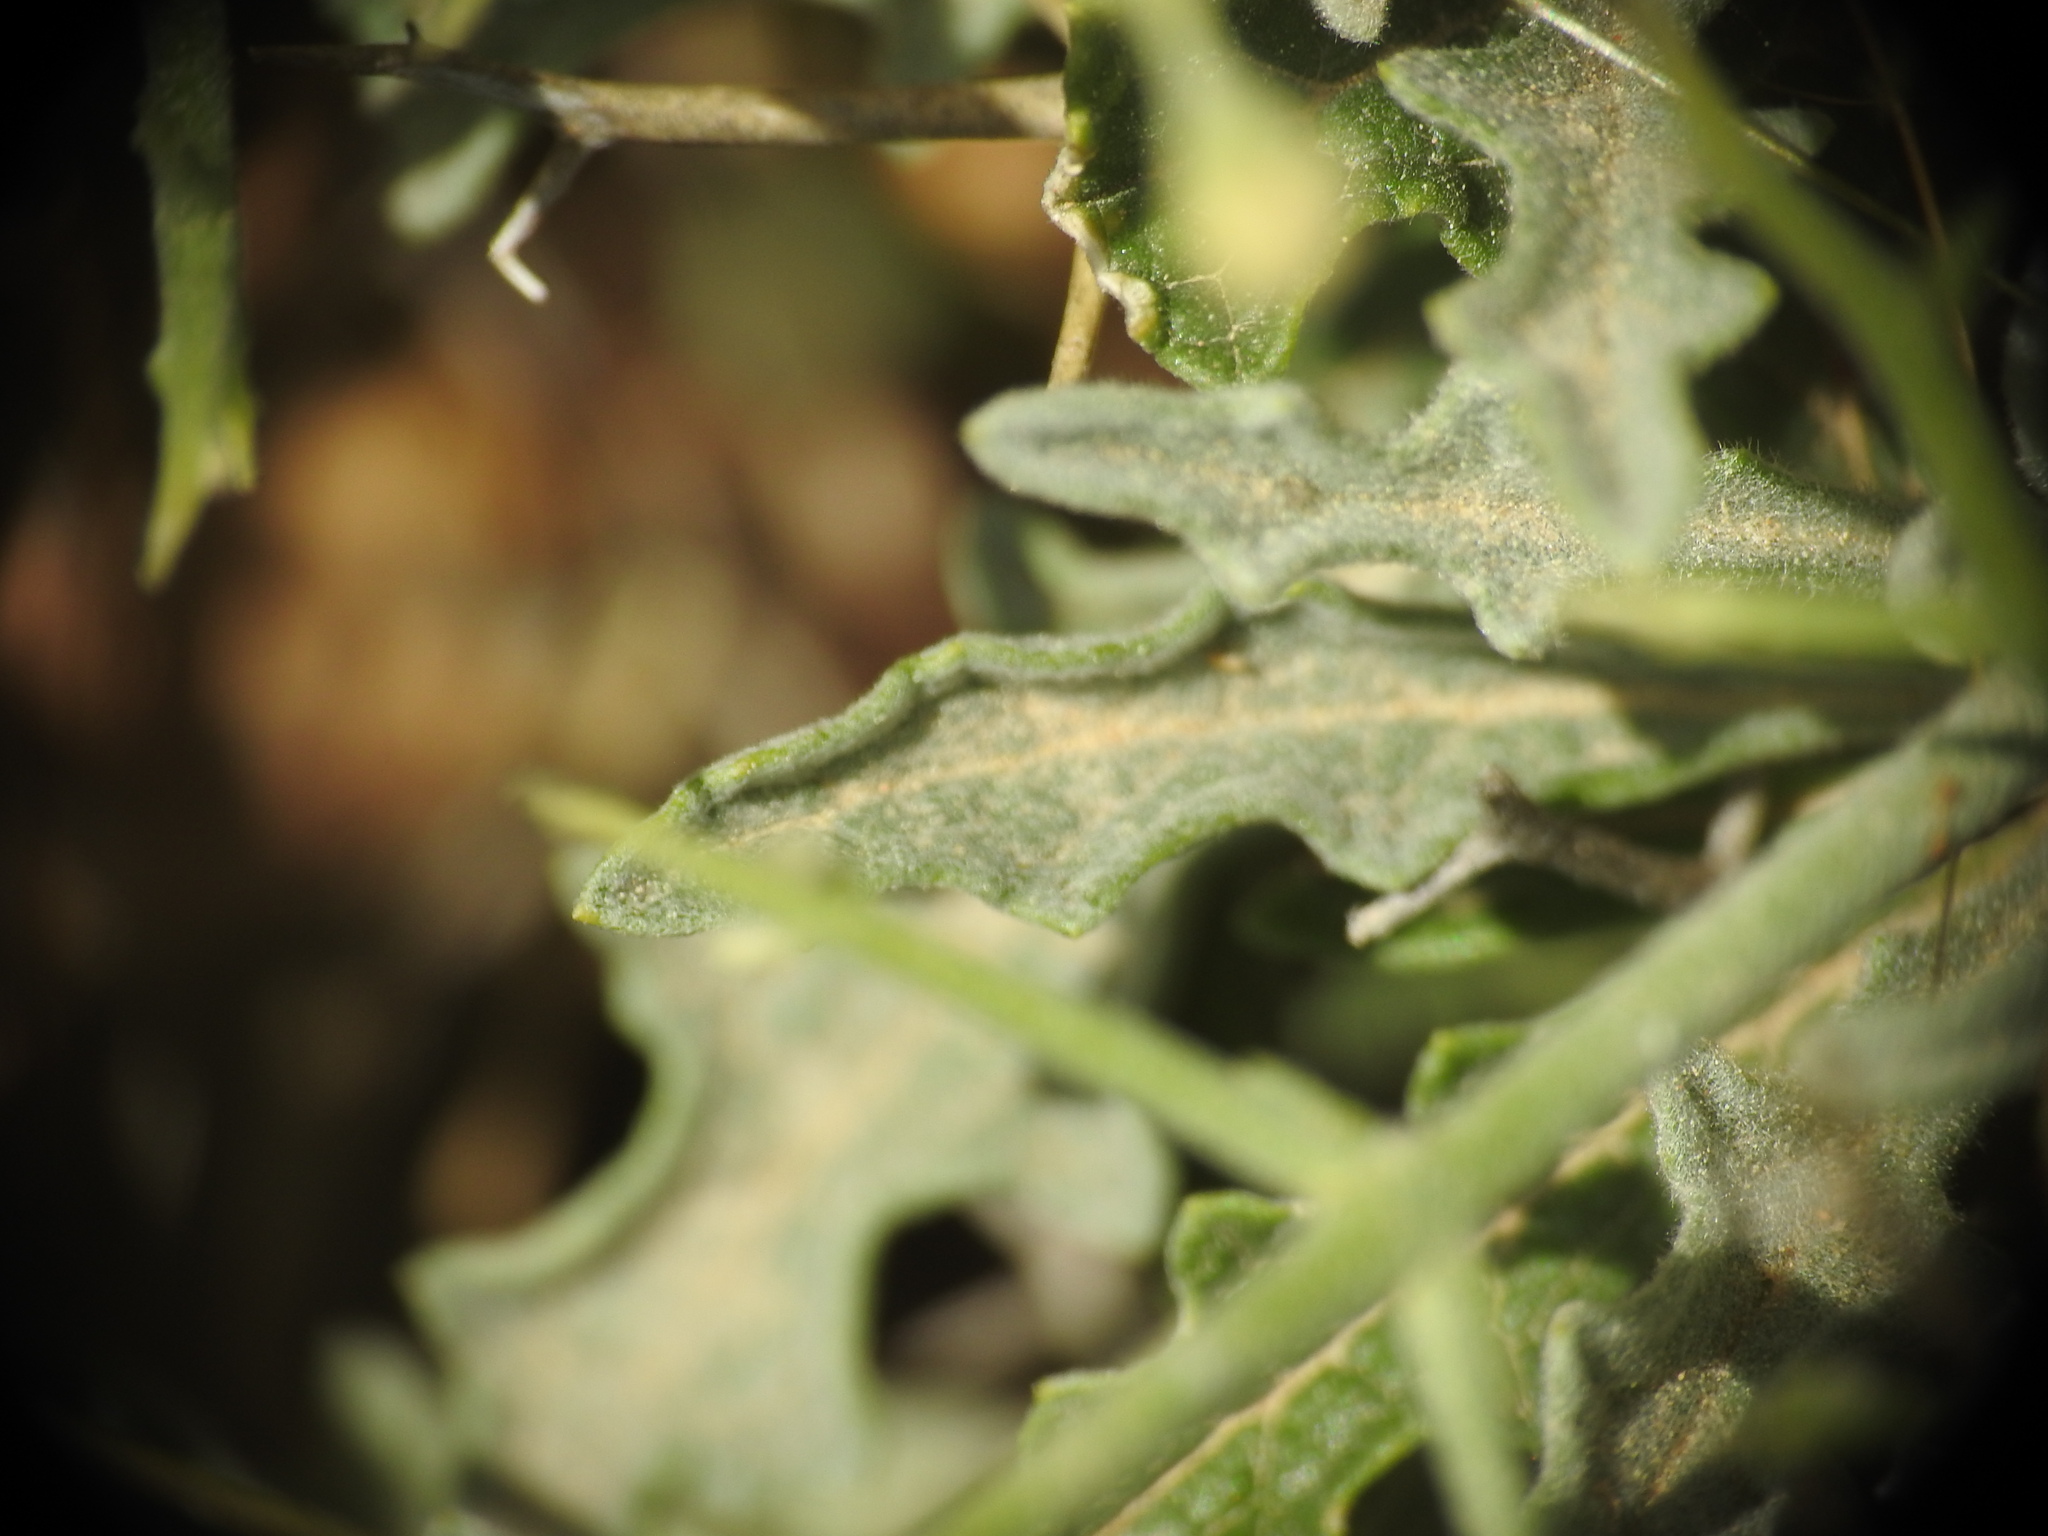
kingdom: Plantae
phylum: Tracheophyta
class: Magnoliopsida
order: Lamiales
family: Scrophulariaceae
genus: Verbascum
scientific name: Verbascum spinosum
